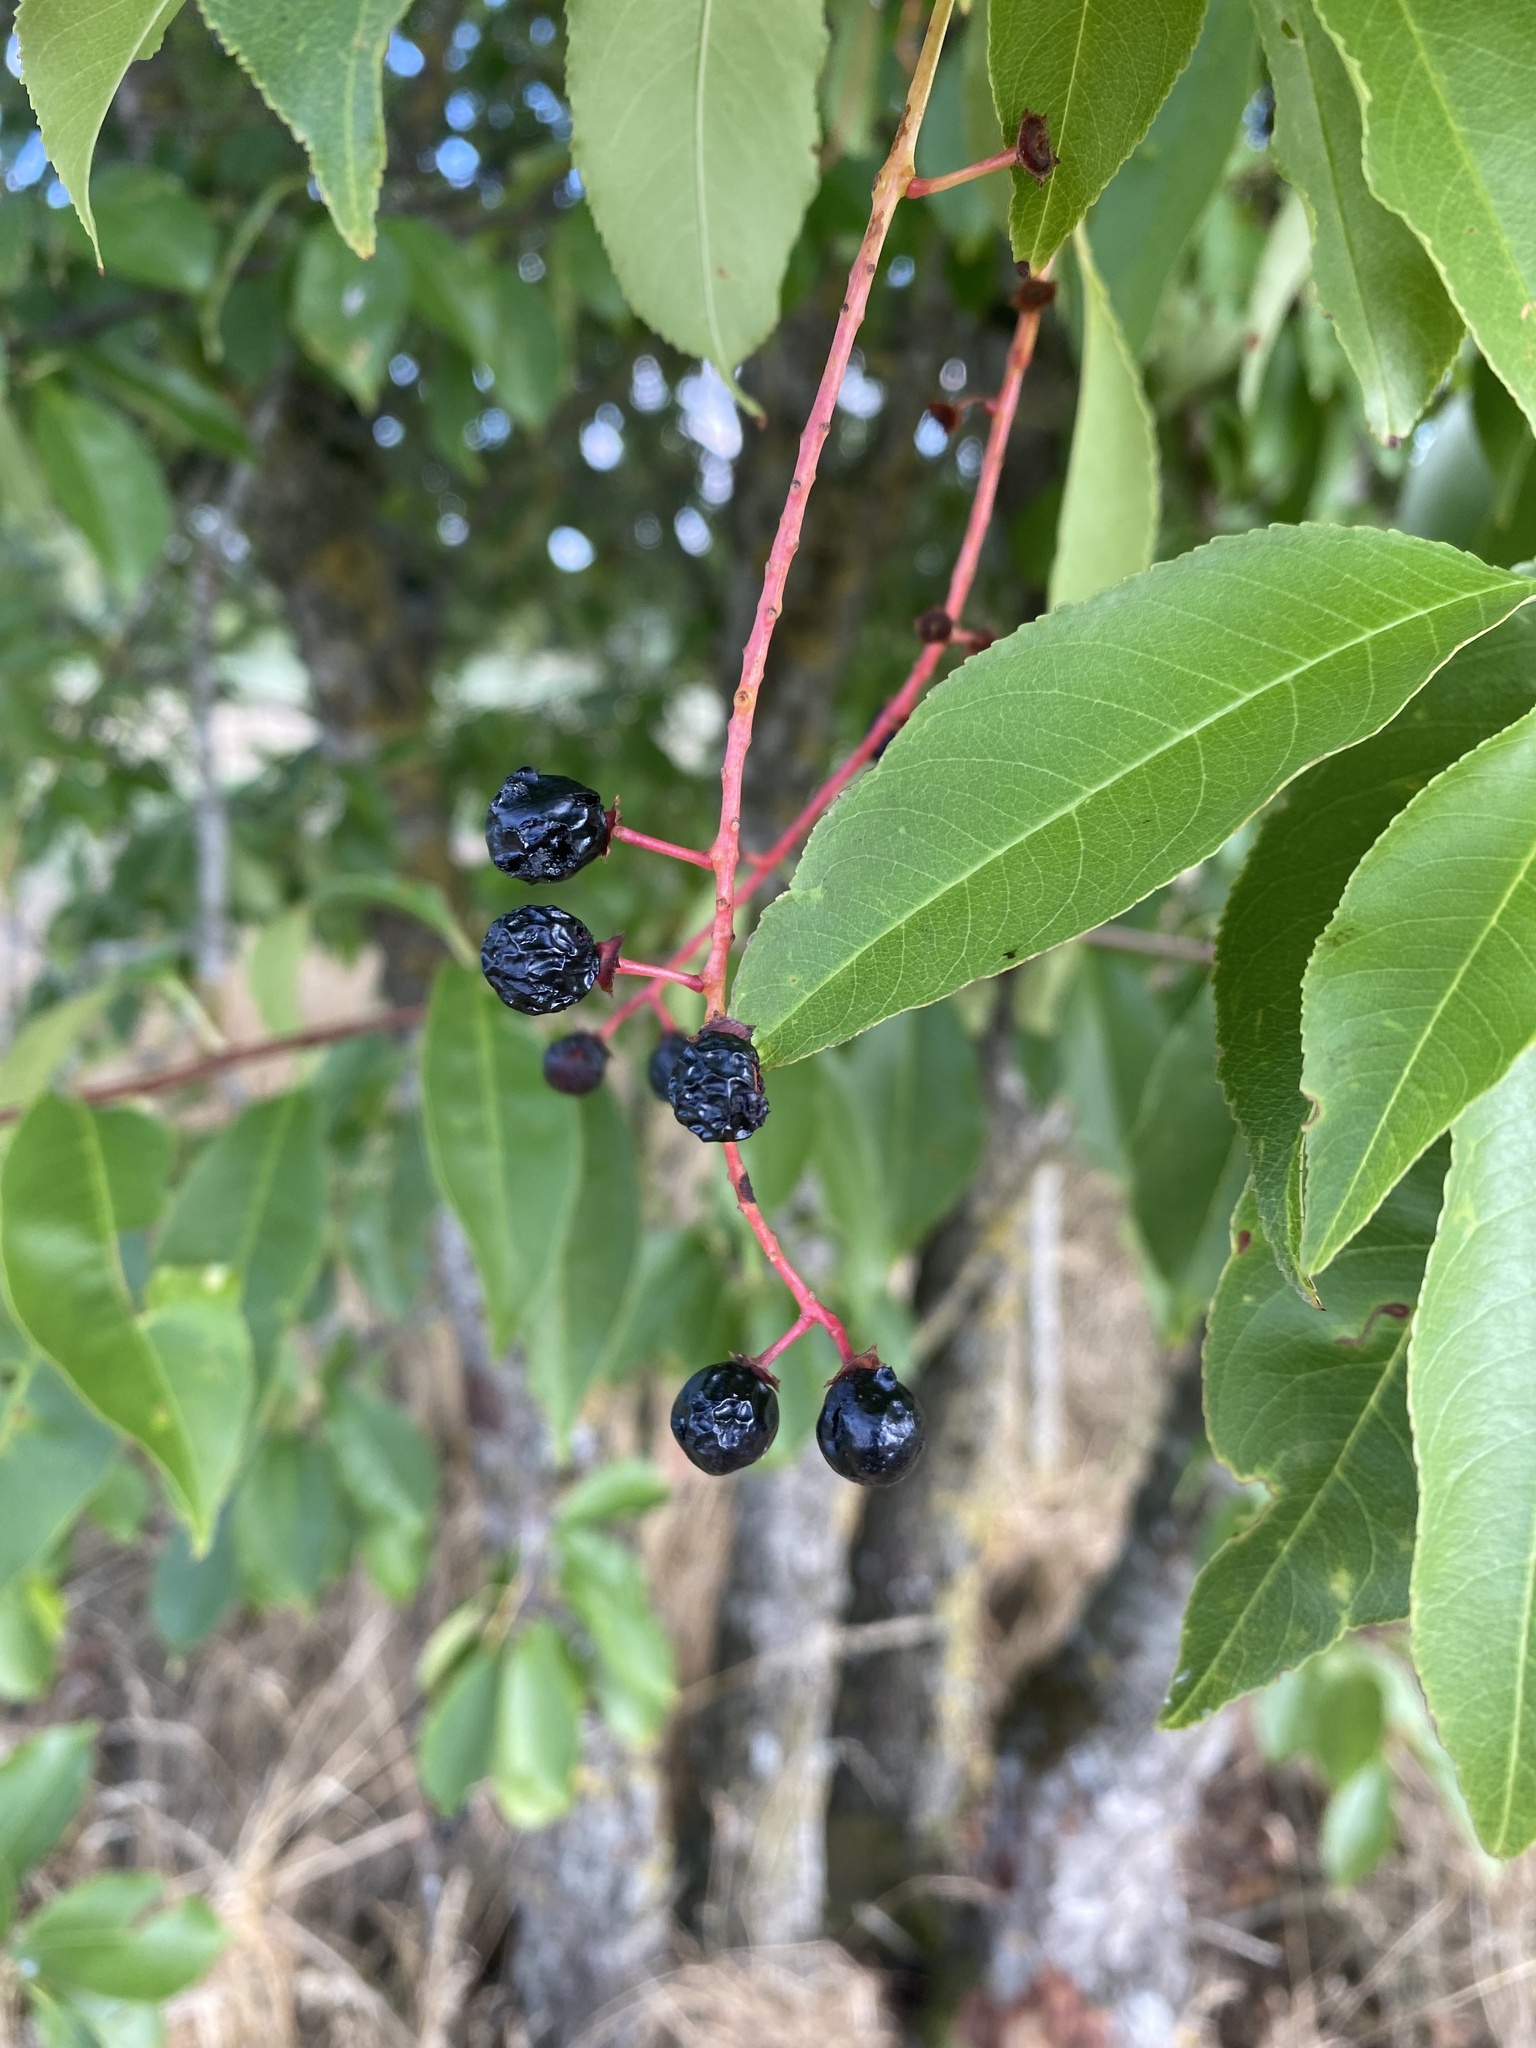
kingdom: Plantae
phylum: Tracheophyta
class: Magnoliopsida
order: Rosales
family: Rosaceae
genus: Prunus
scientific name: Prunus serotina
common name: Black cherry
